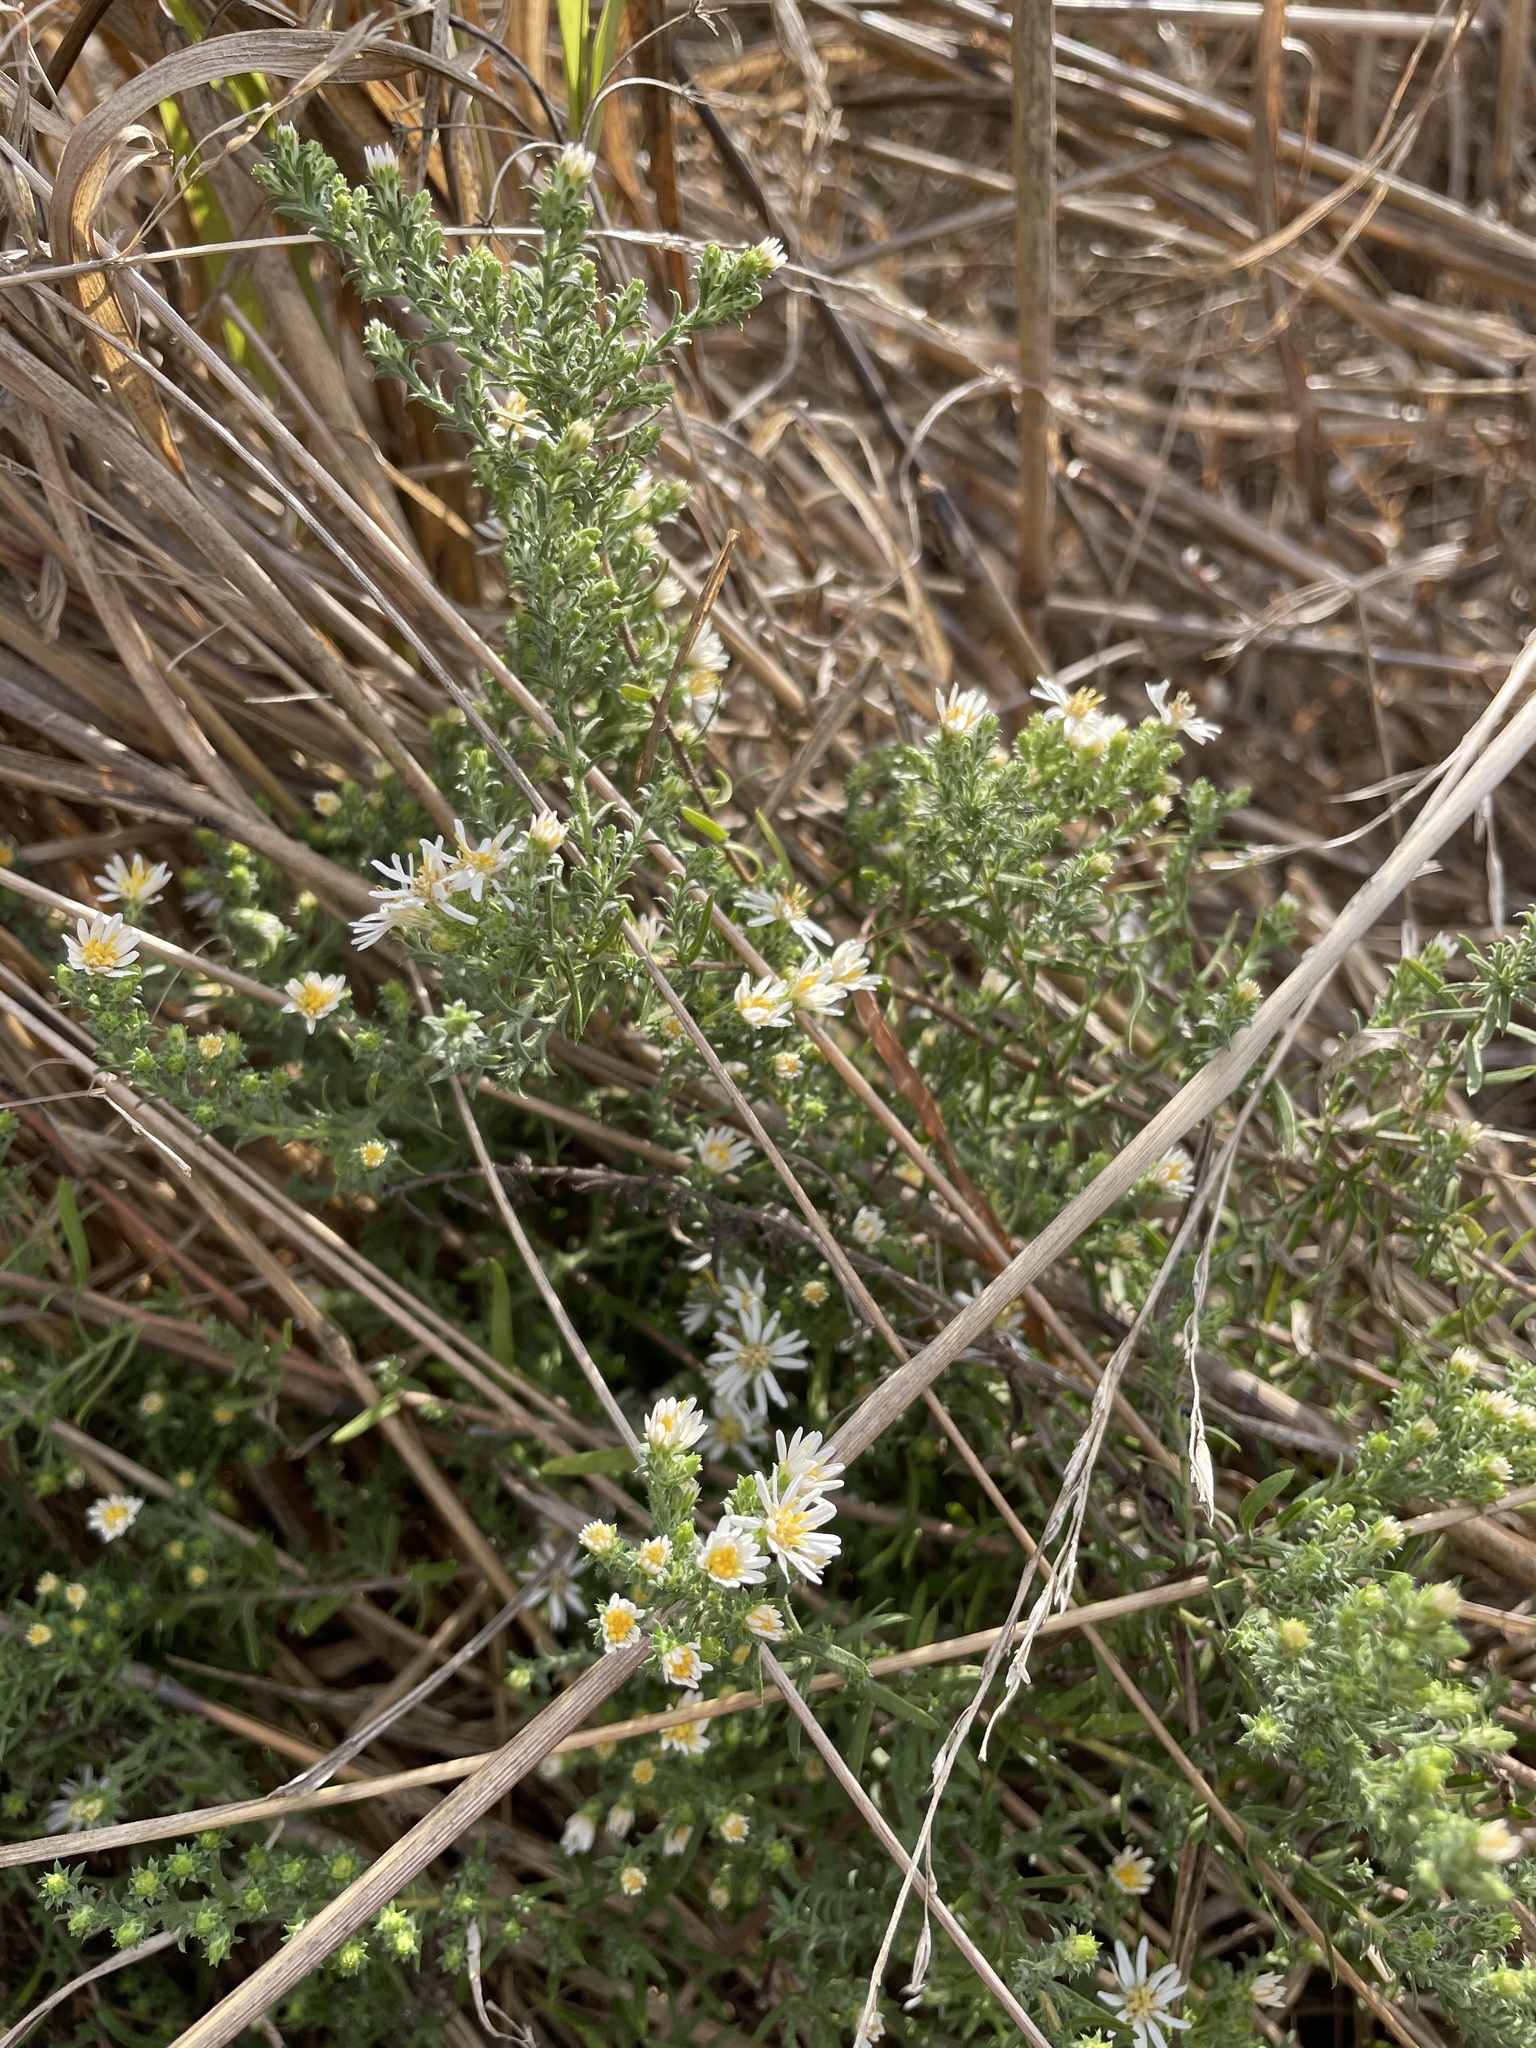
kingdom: Plantae
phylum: Tracheophyta
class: Magnoliopsida
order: Asterales
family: Asteraceae
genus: Symphyotrichum
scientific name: Symphyotrichum ericoides
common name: Heath aster
